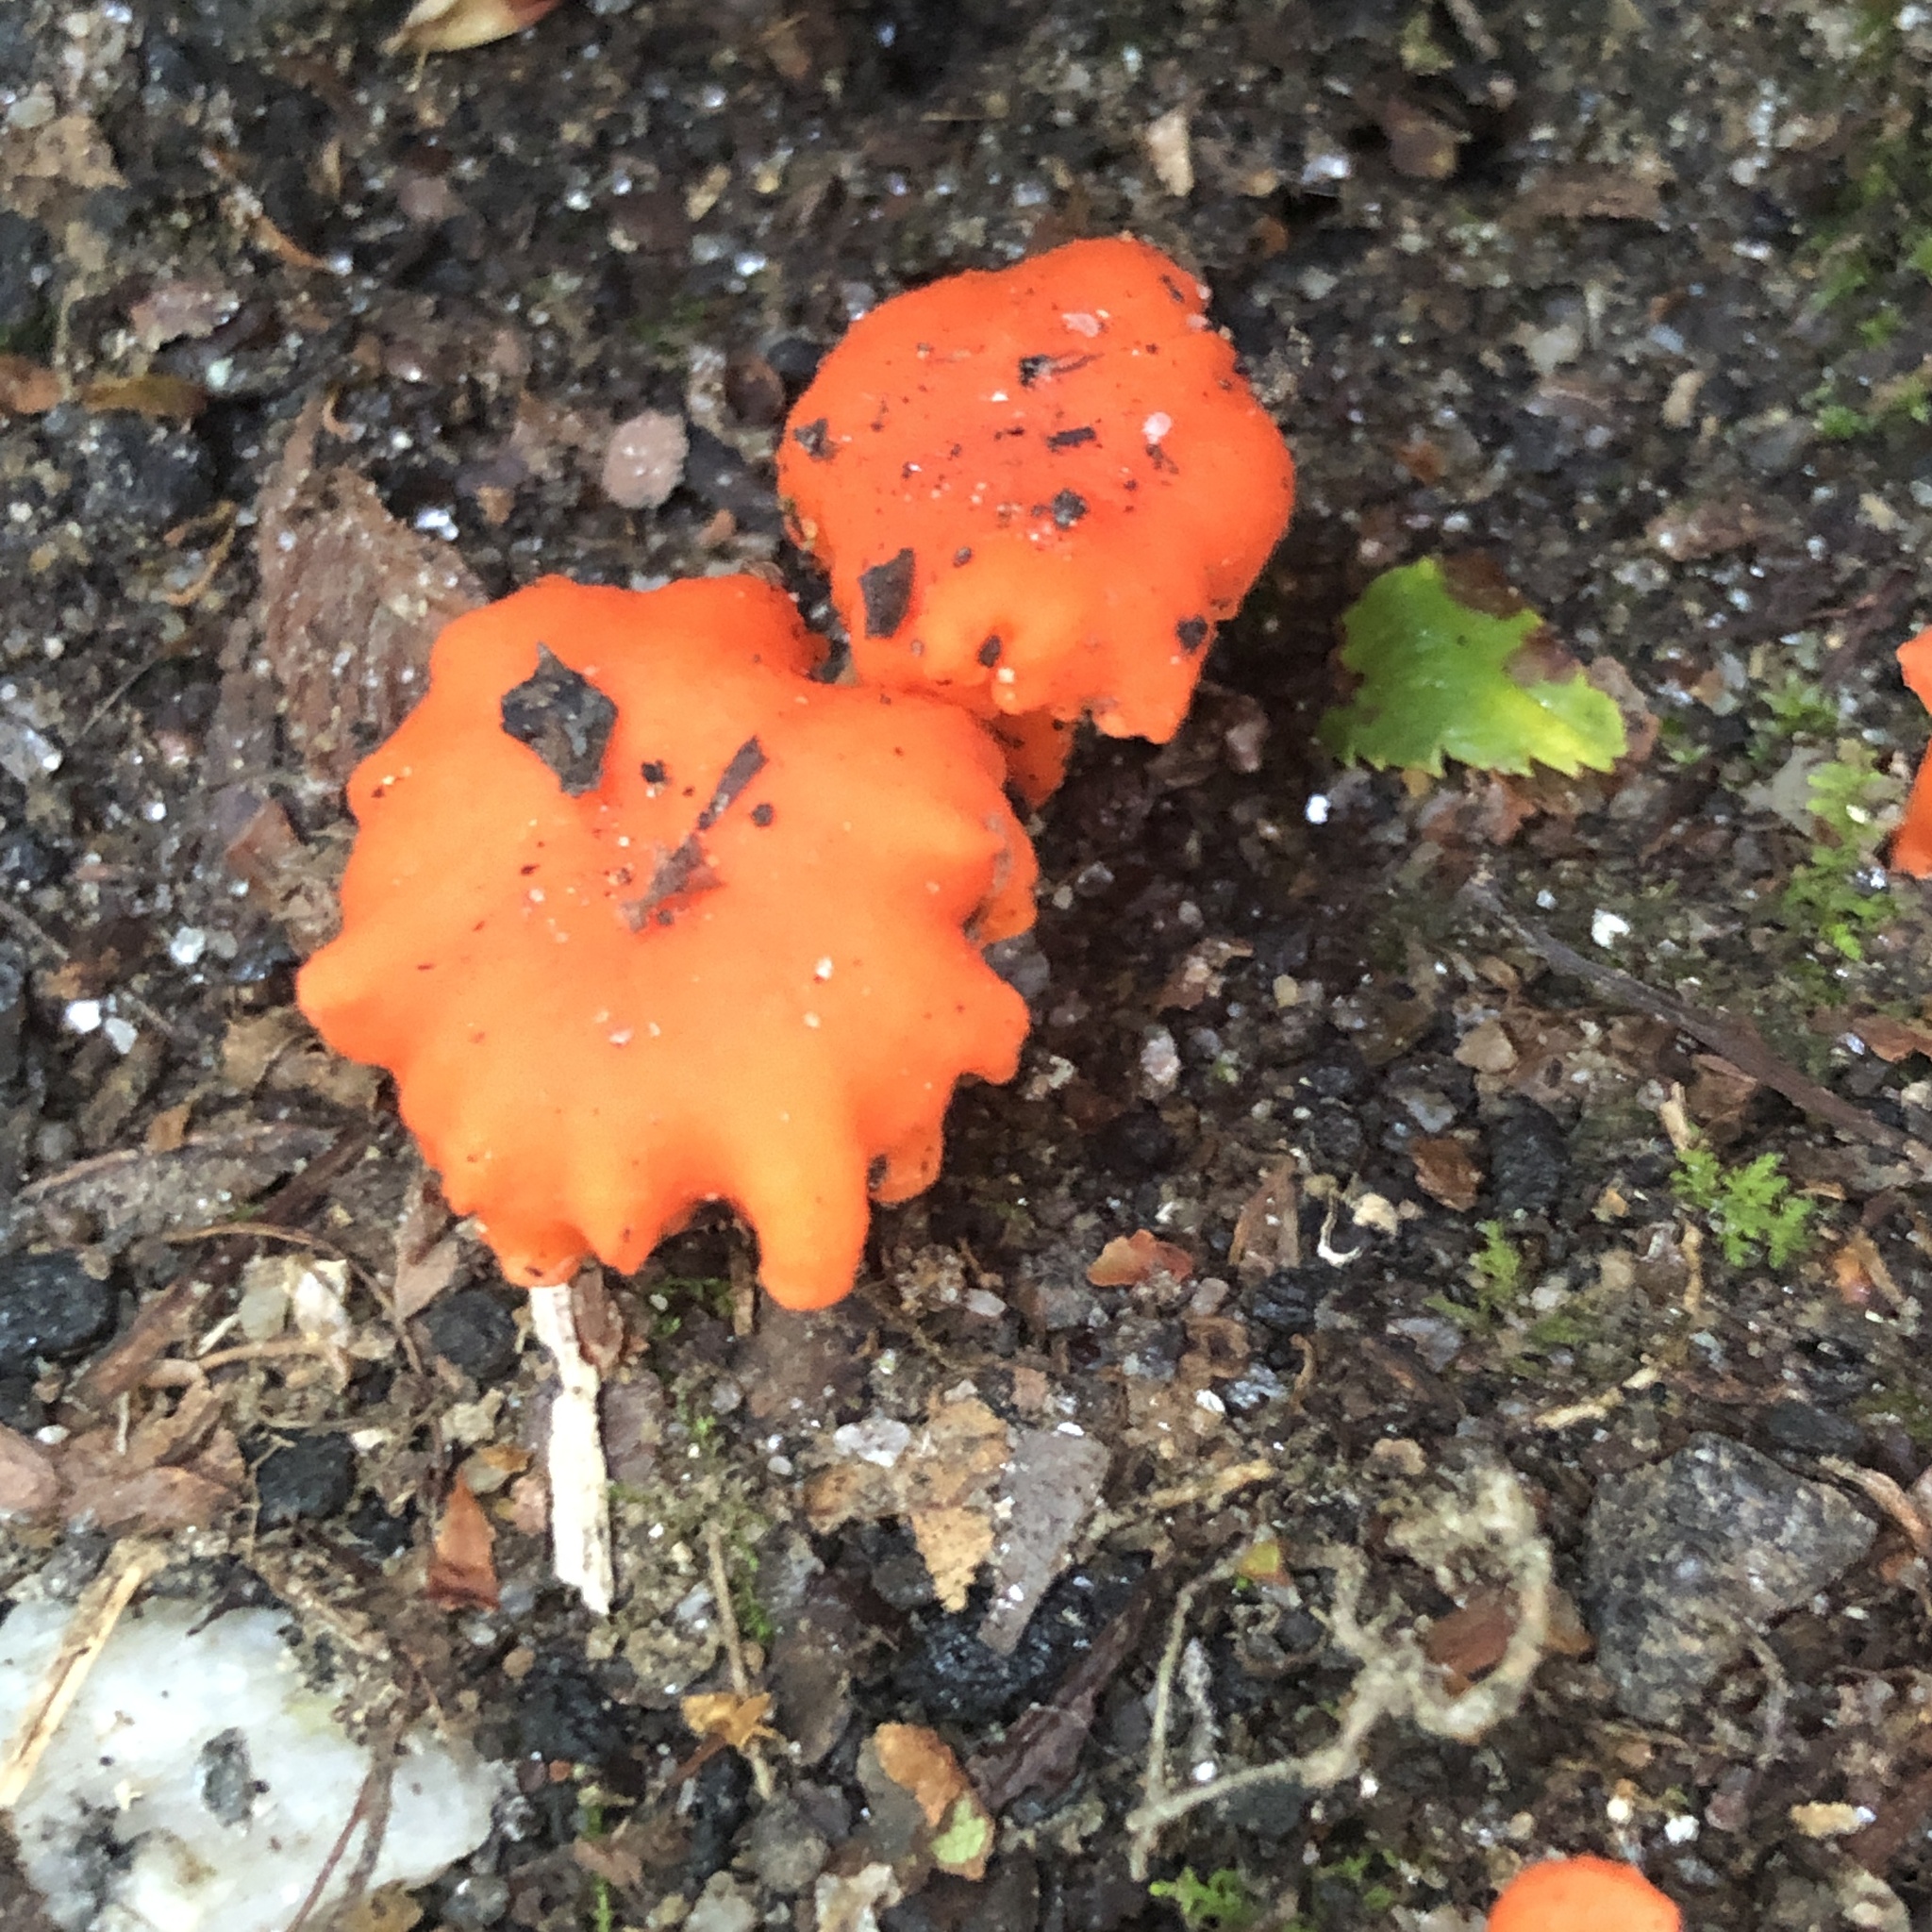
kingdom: Fungi
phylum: Basidiomycota
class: Agaricomycetes
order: Cantharellales
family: Hydnaceae
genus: Cantharellus
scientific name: Cantharellus cinnabarinus
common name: Cinnabar chanterelle
